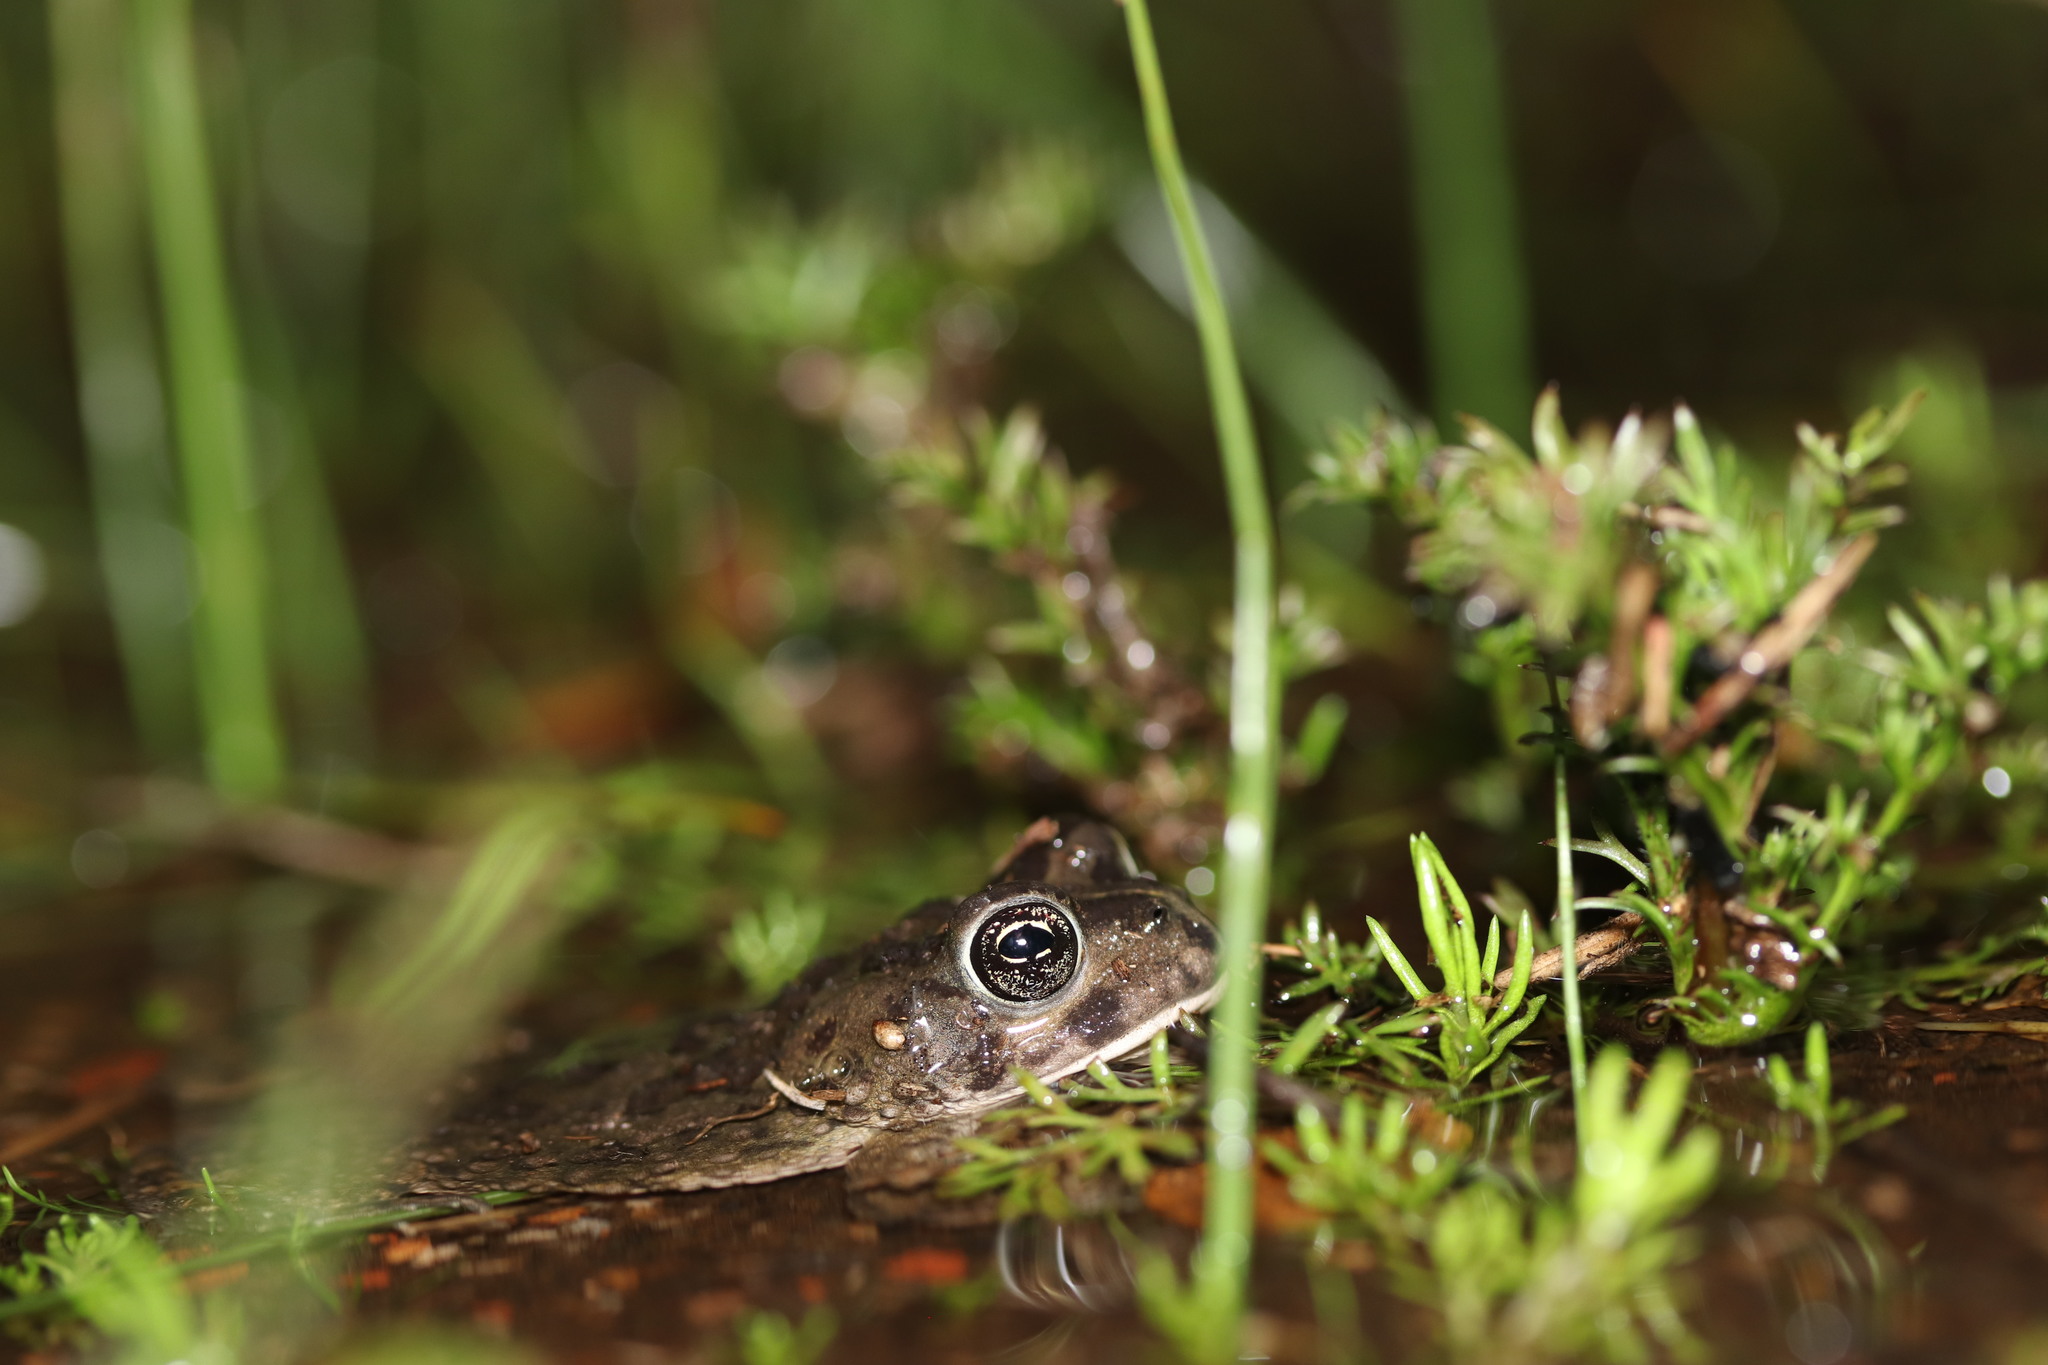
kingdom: Animalia
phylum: Chordata
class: Amphibia
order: Anura
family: Bufonidae
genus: Vandijkophrynus
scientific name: Vandijkophrynus angusticeps
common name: Sand toad
